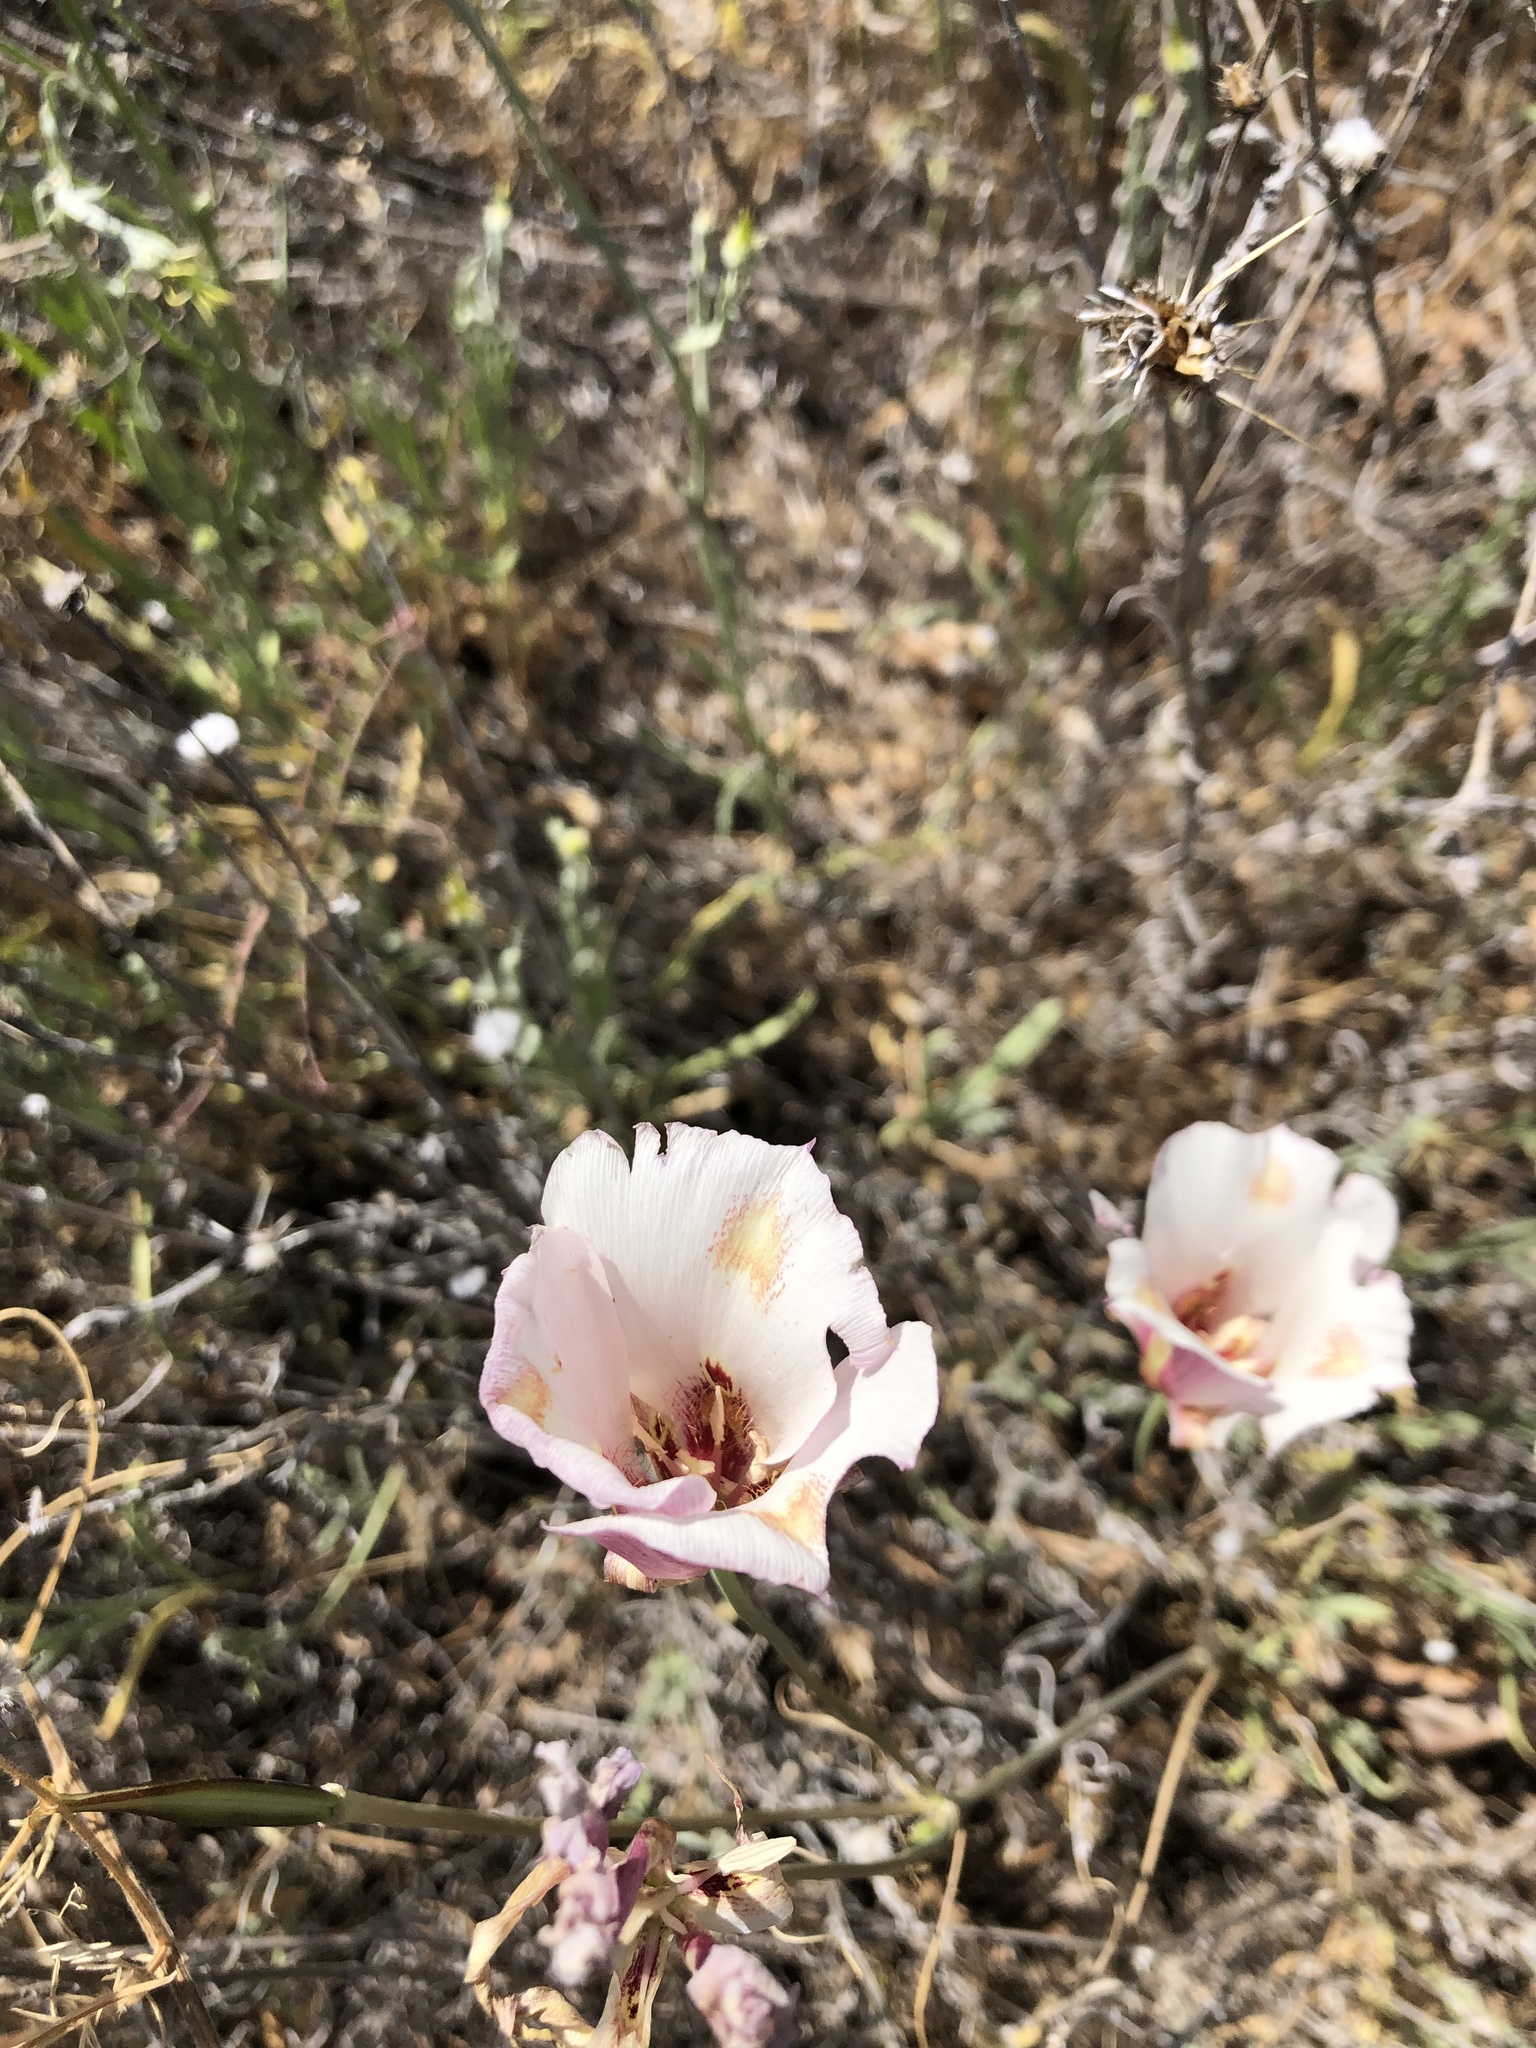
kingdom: Plantae
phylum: Tracheophyta
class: Liliopsida
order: Liliales
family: Liliaceae
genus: Calochortus
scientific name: Calochortus venustus
